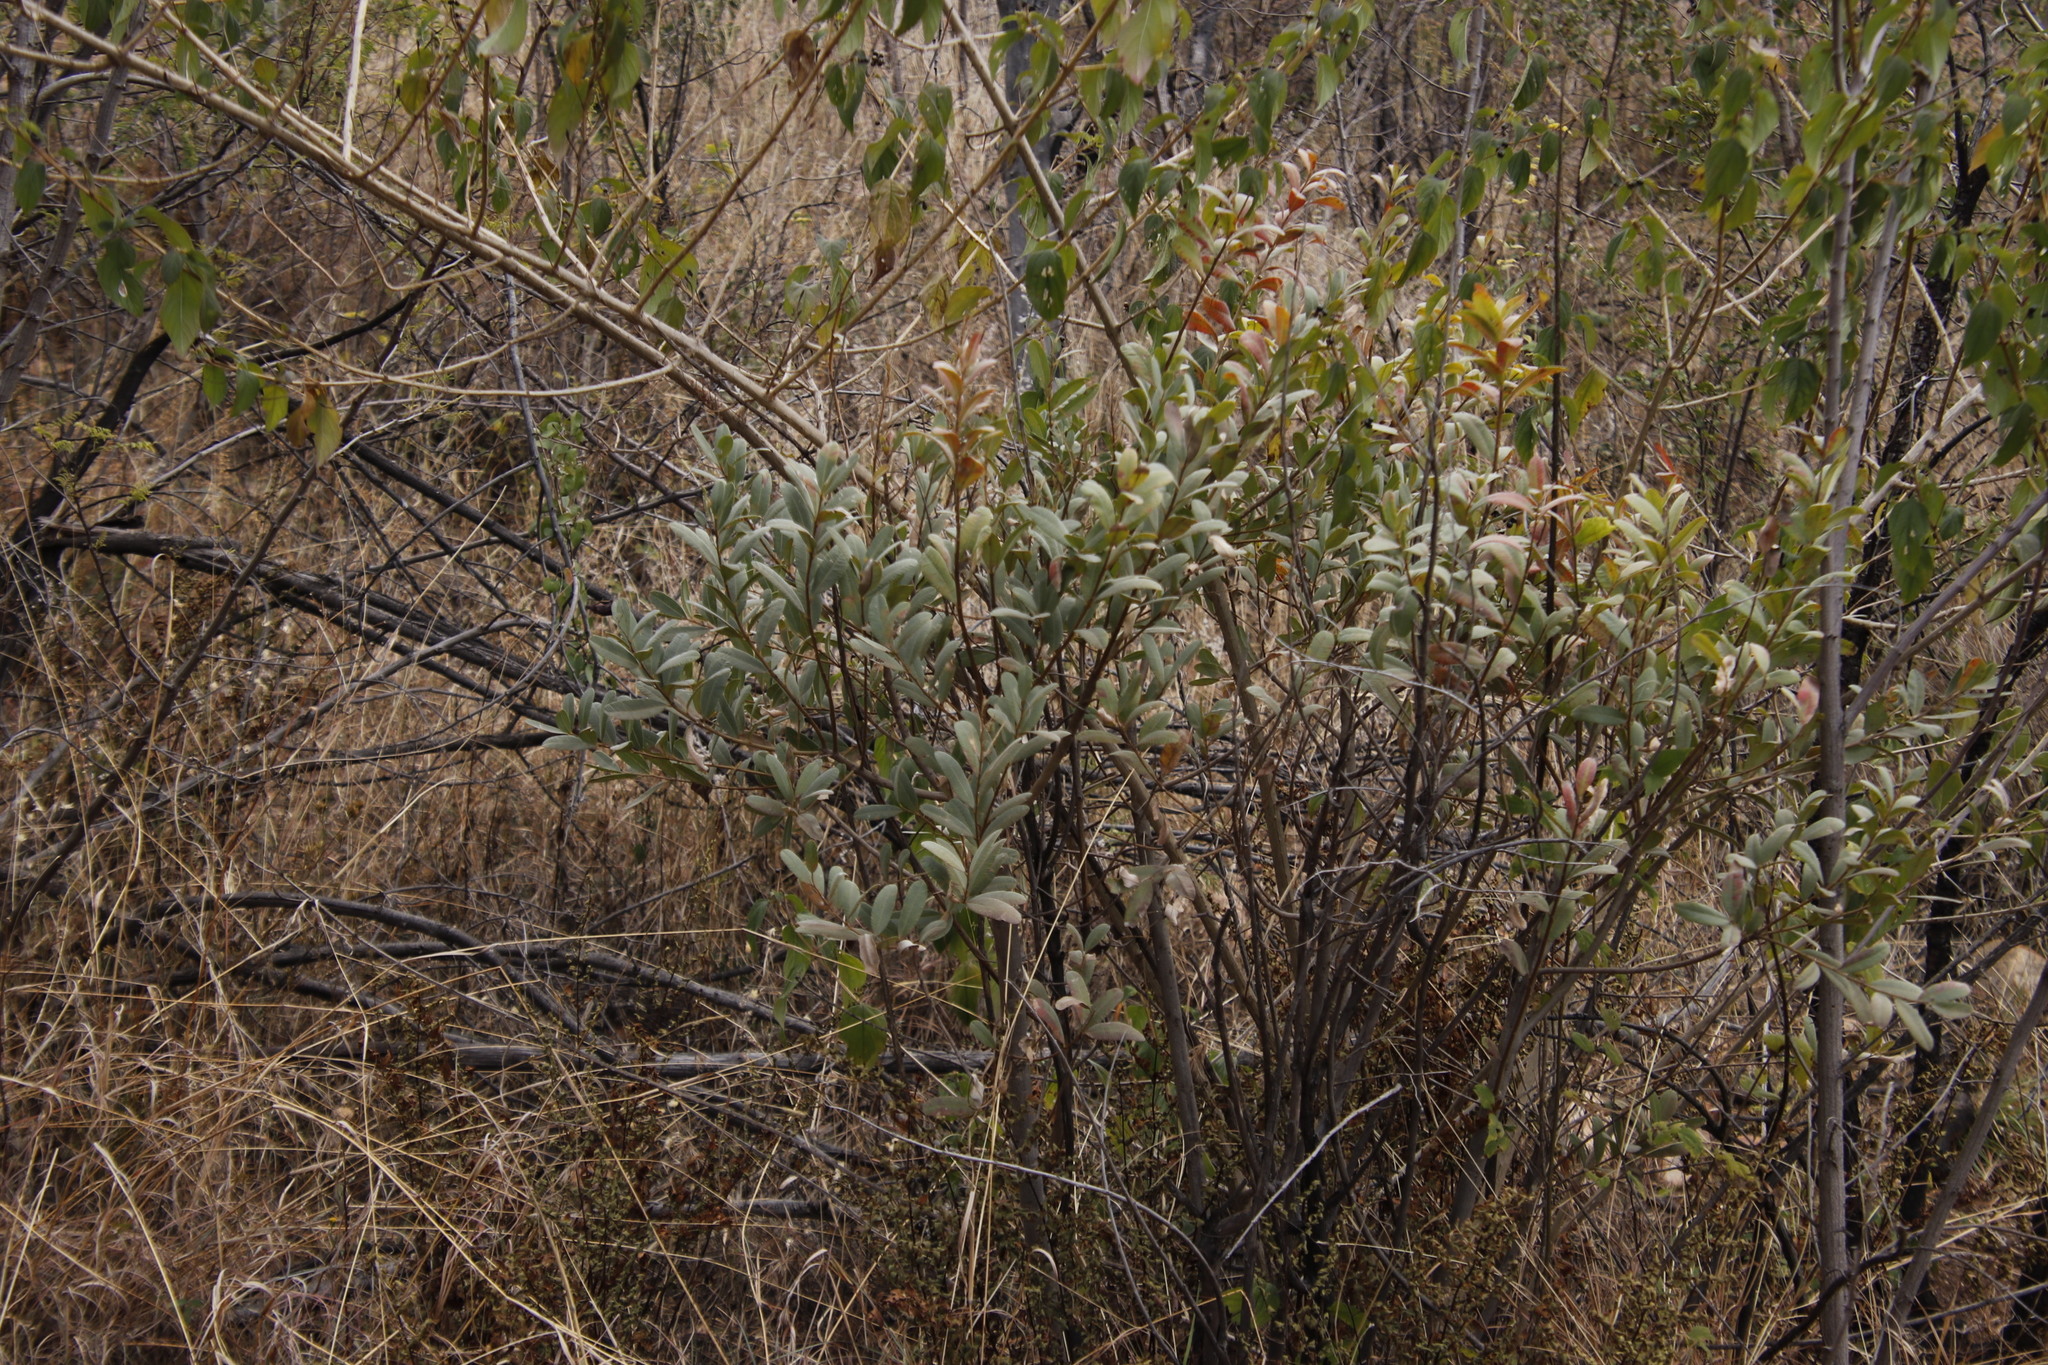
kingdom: Plantae
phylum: Tracheophyta
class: Magnoliopsida
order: Sapindales
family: Anacardiaceae
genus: Ozoroa
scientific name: Ozoroa paniculosa
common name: Bushveld ozoroa
